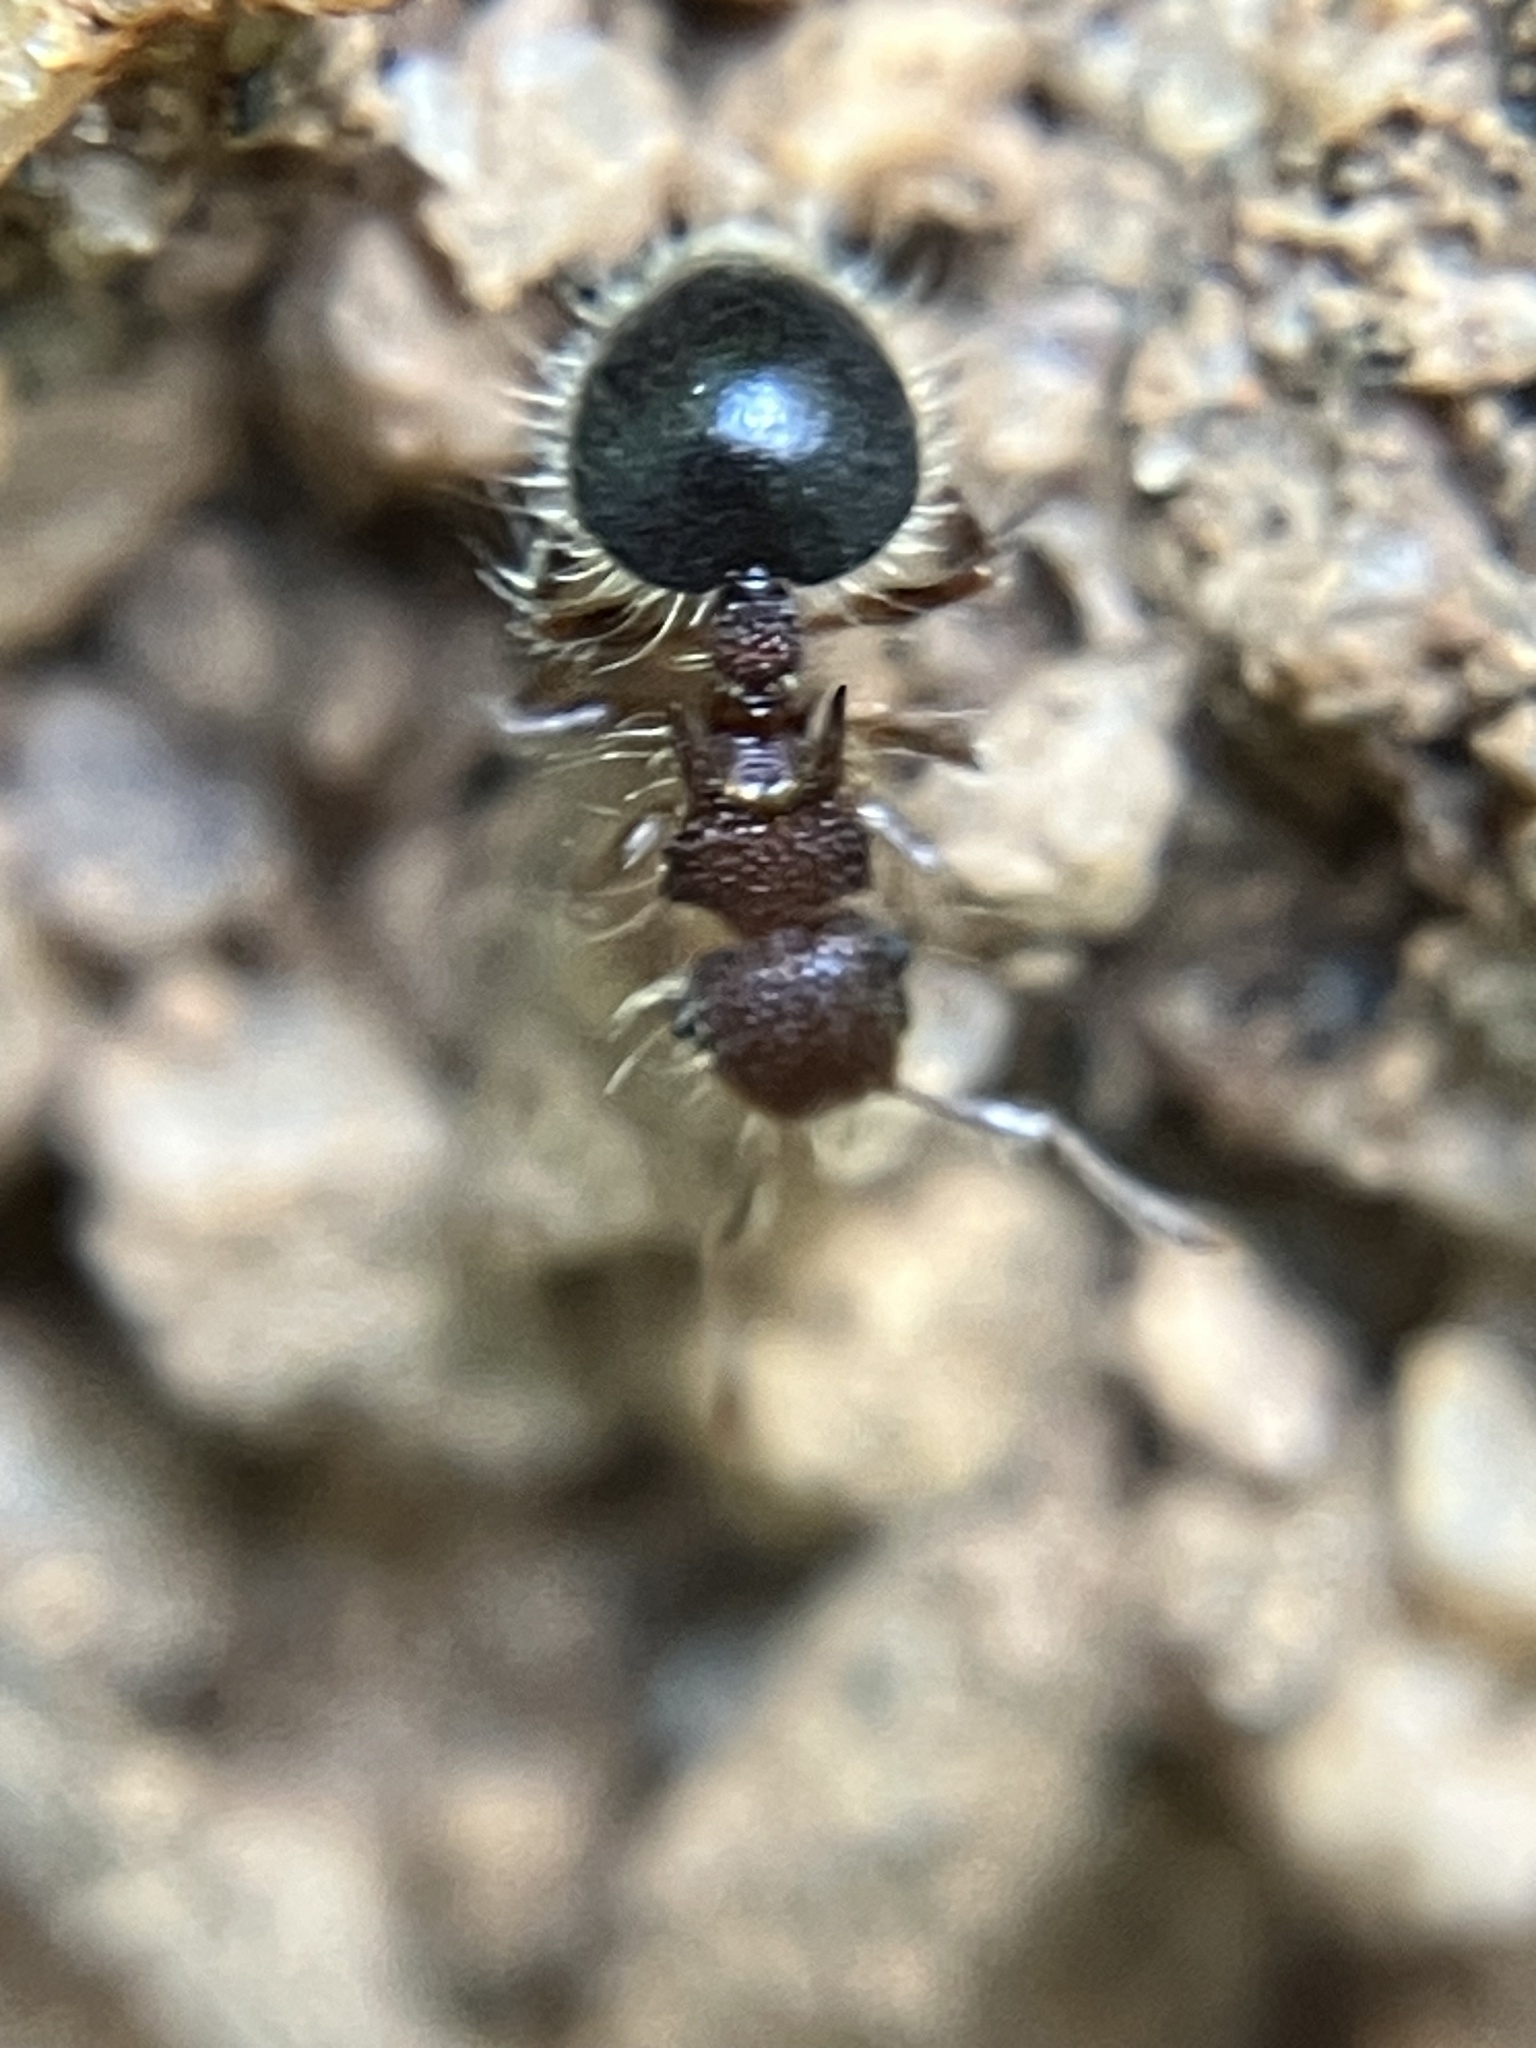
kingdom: Animalia
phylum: Arthropoda
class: Insecta
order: Hymenoptera
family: Formicidae
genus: Meranoplus
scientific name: Meranoplus bicolor
